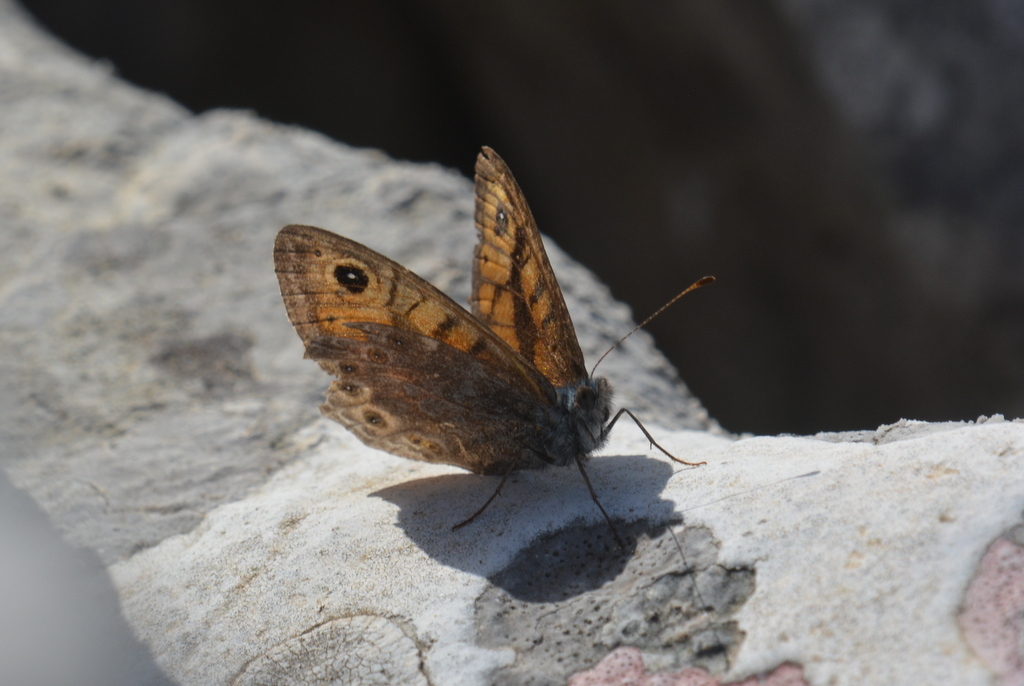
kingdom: Animalia
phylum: Arthropoda
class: Insecta
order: Lepidoptera
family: Nymphalidae
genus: Pararge
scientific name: Pararge Lasiommata megera
